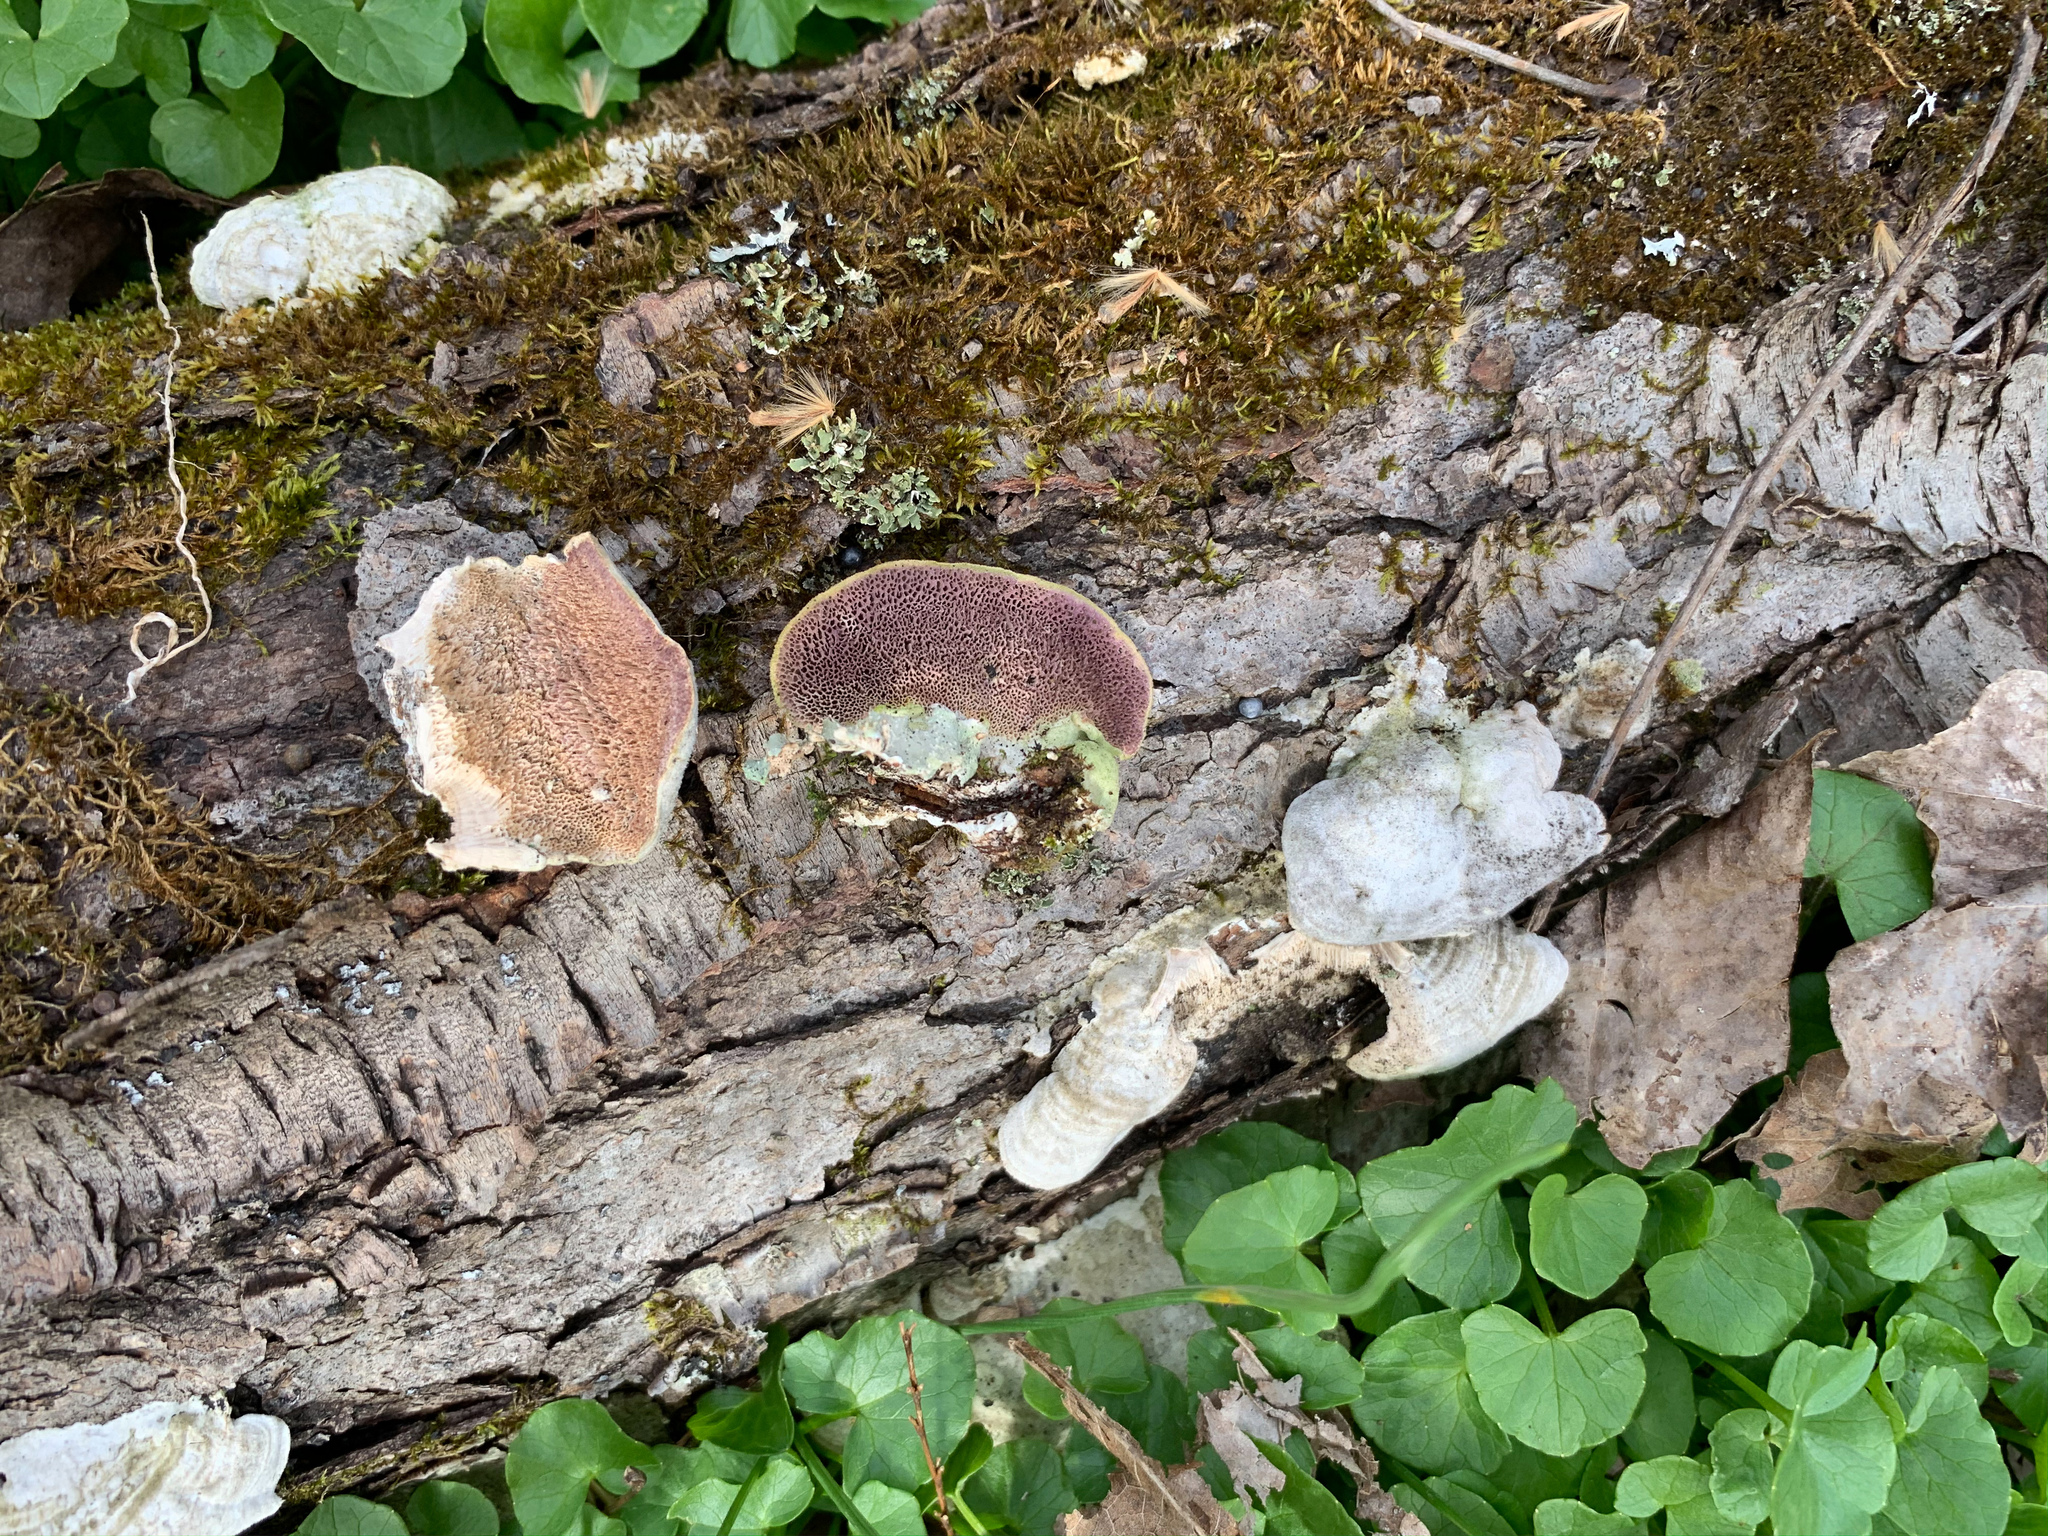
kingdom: Fungi
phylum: Basidiomycota
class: Agaricomycetes
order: Hymenochaetales
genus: Trichaptum
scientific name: Trichaptum biforme
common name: Violet-toothed polypore
